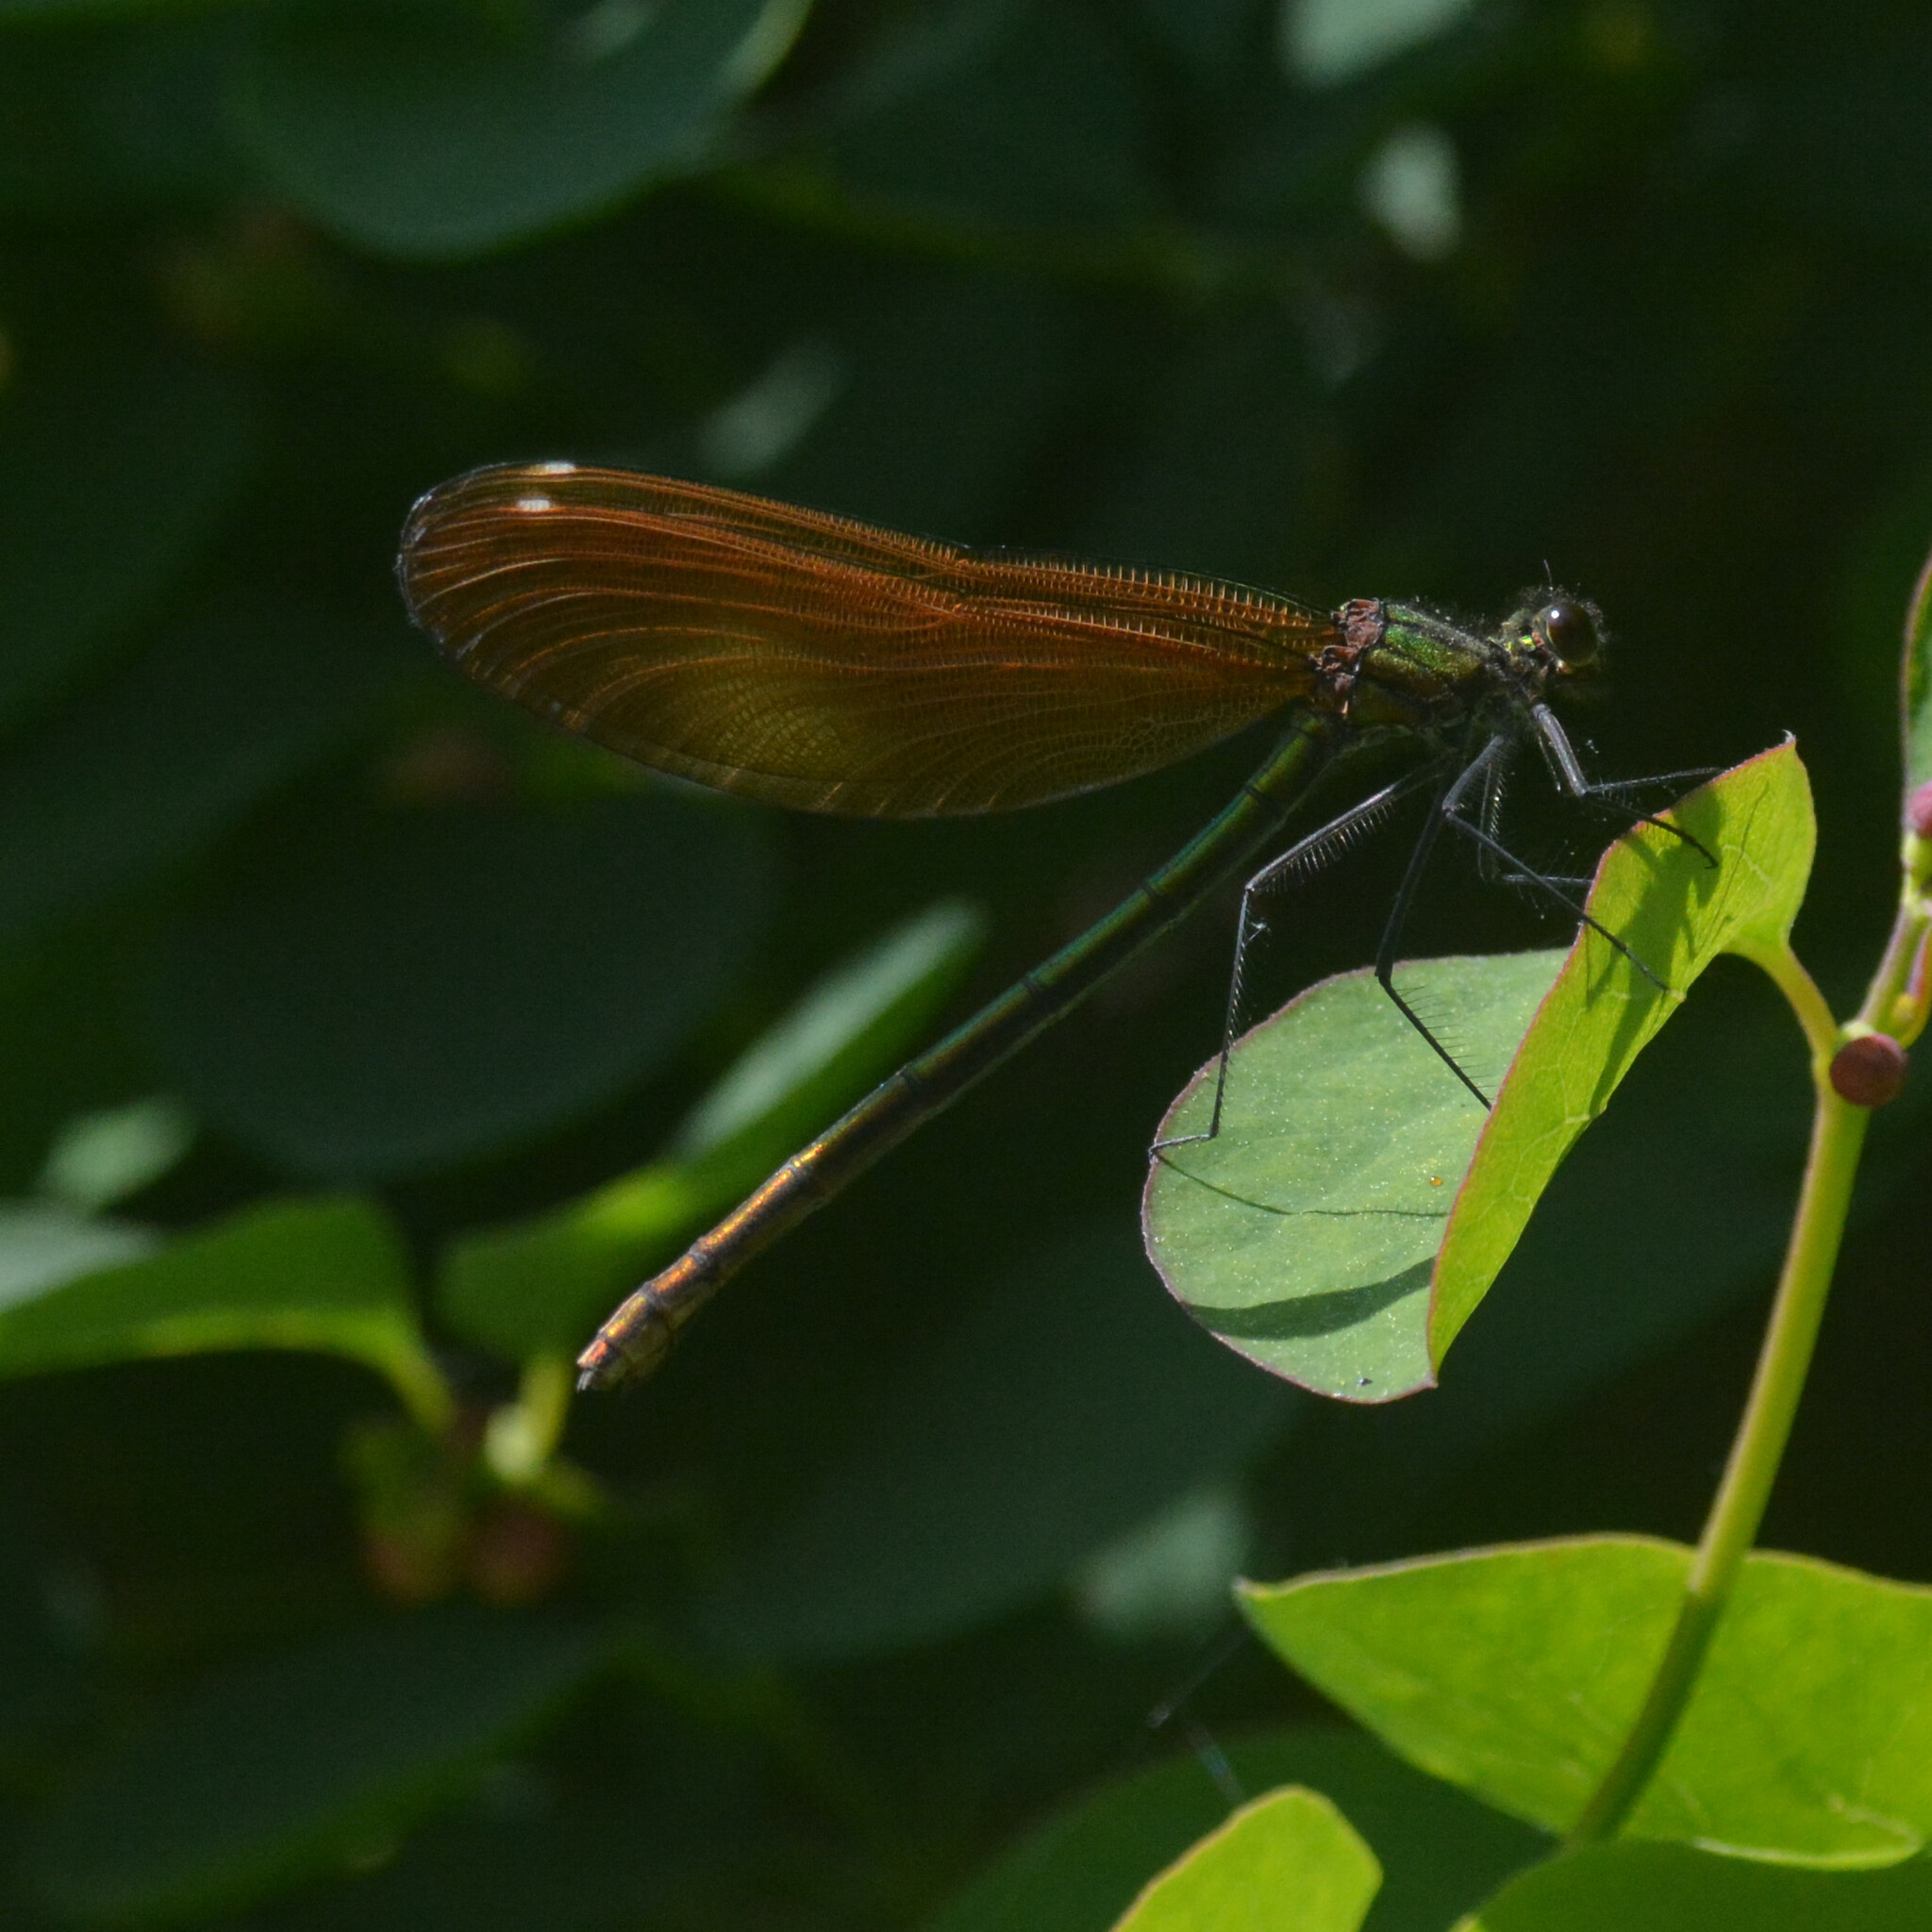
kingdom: Animalia
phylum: Arthropoda
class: Insecta
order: Odonata
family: Calopterygidae
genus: Calopteryx
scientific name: Calopteryx virgo
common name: Beautiful demoiselle
